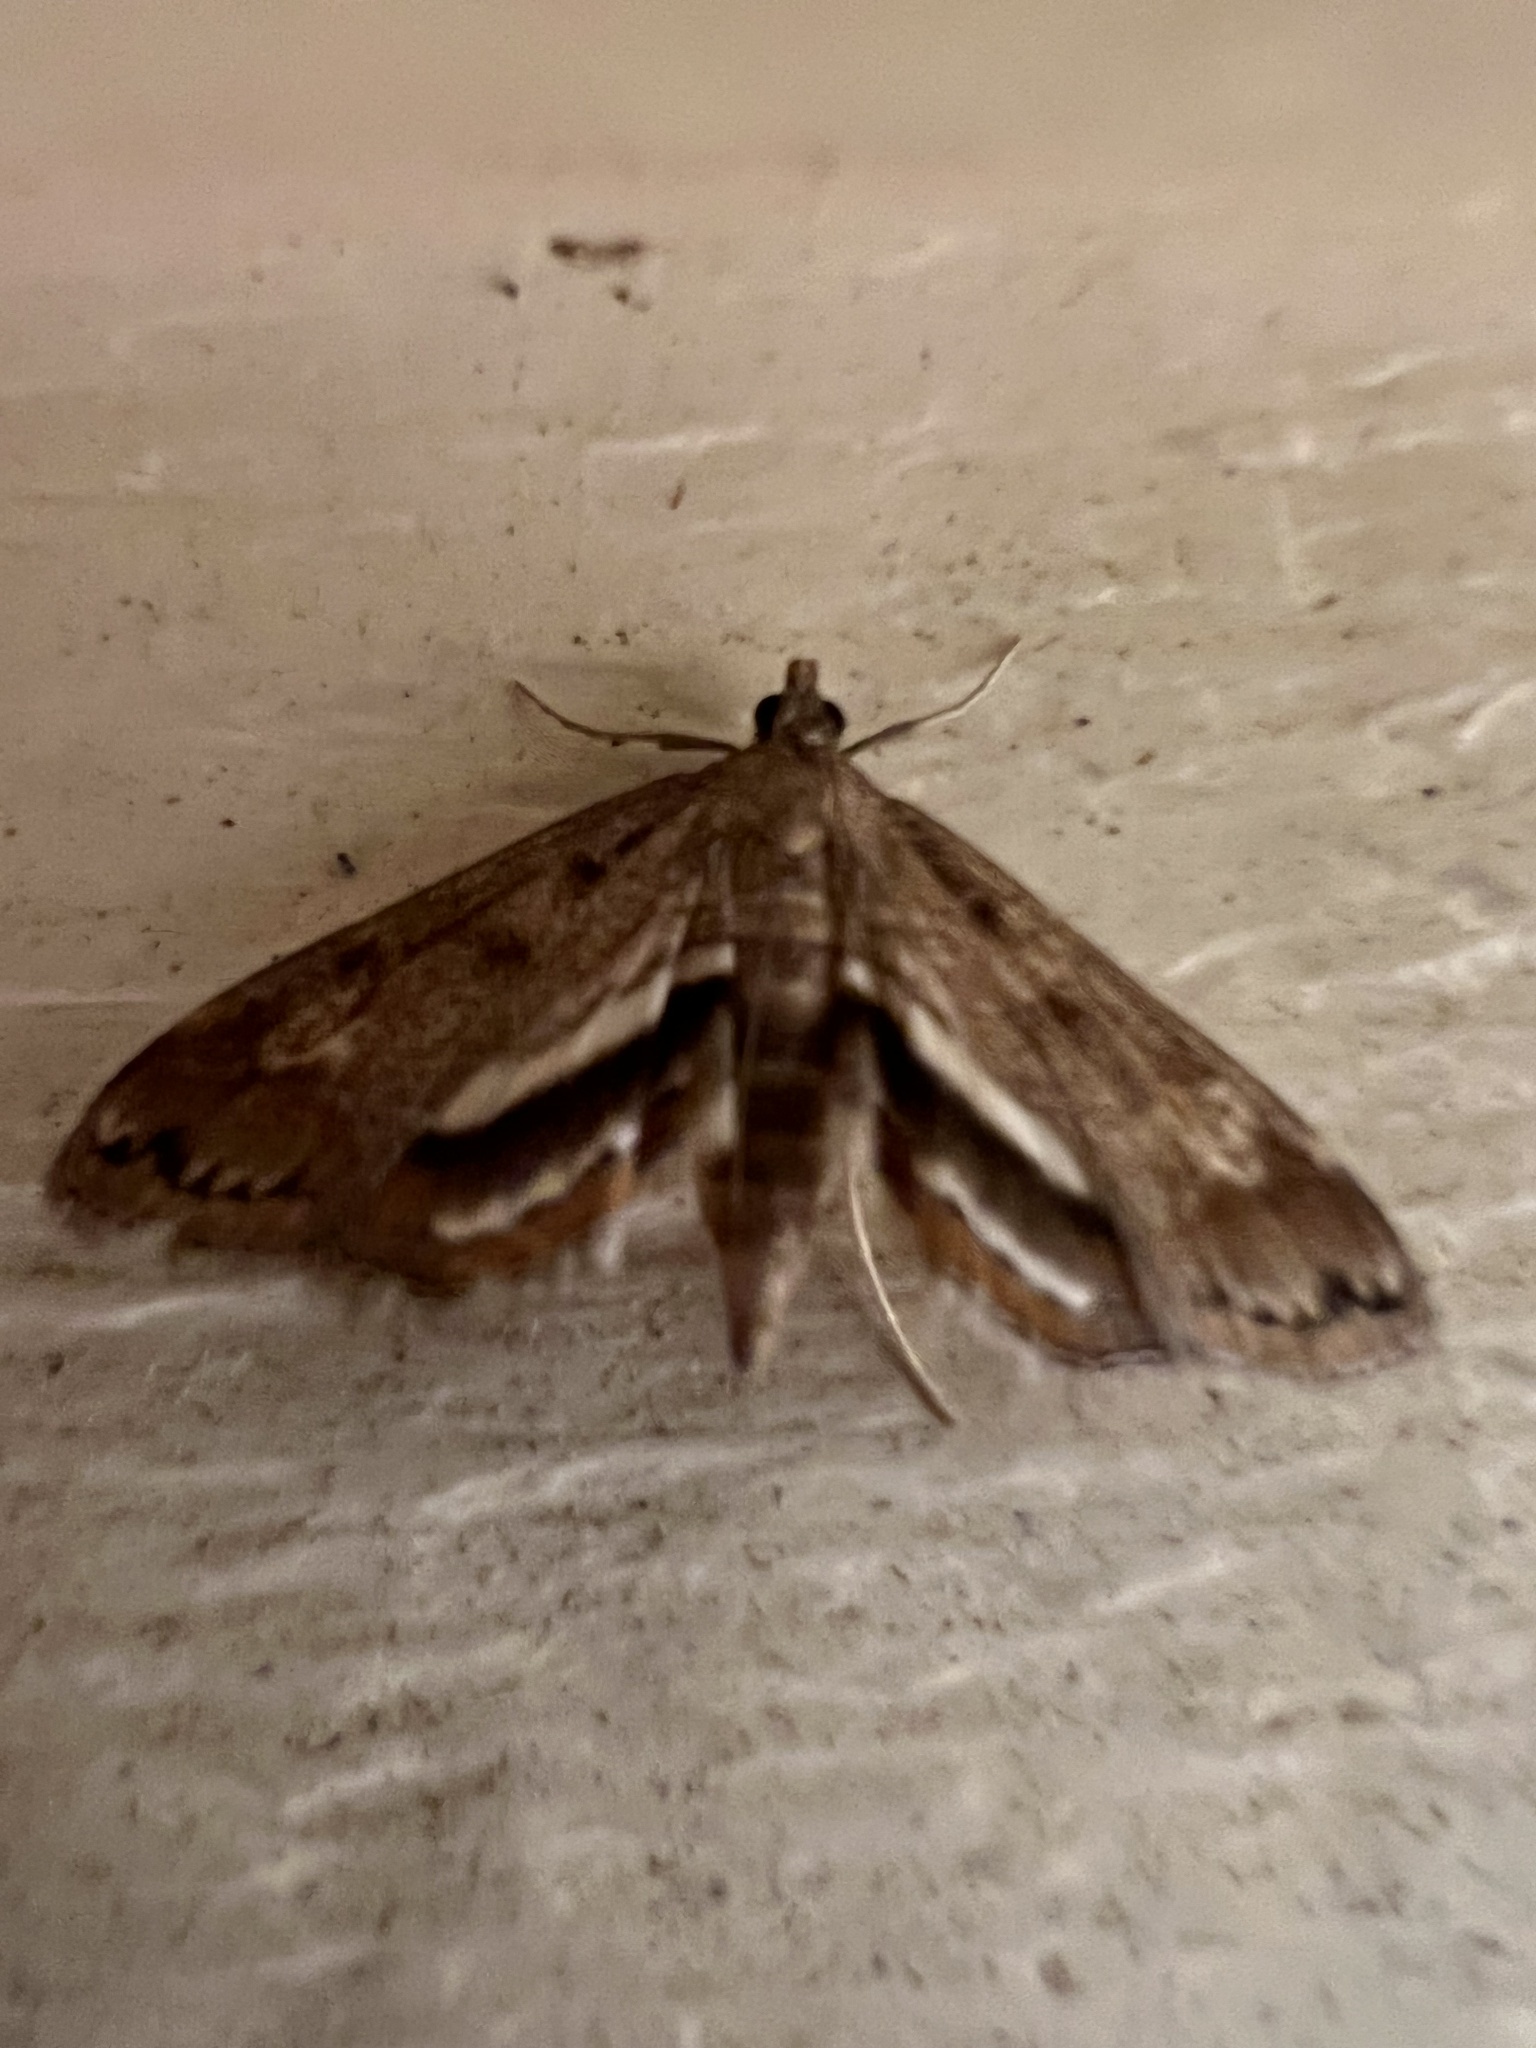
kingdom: Animalia
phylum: Arthropoda
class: Insecta
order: Lepidoptera
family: Crambidae
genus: Parapoynx
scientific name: Parapoynx obscuralis
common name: American china-mark
